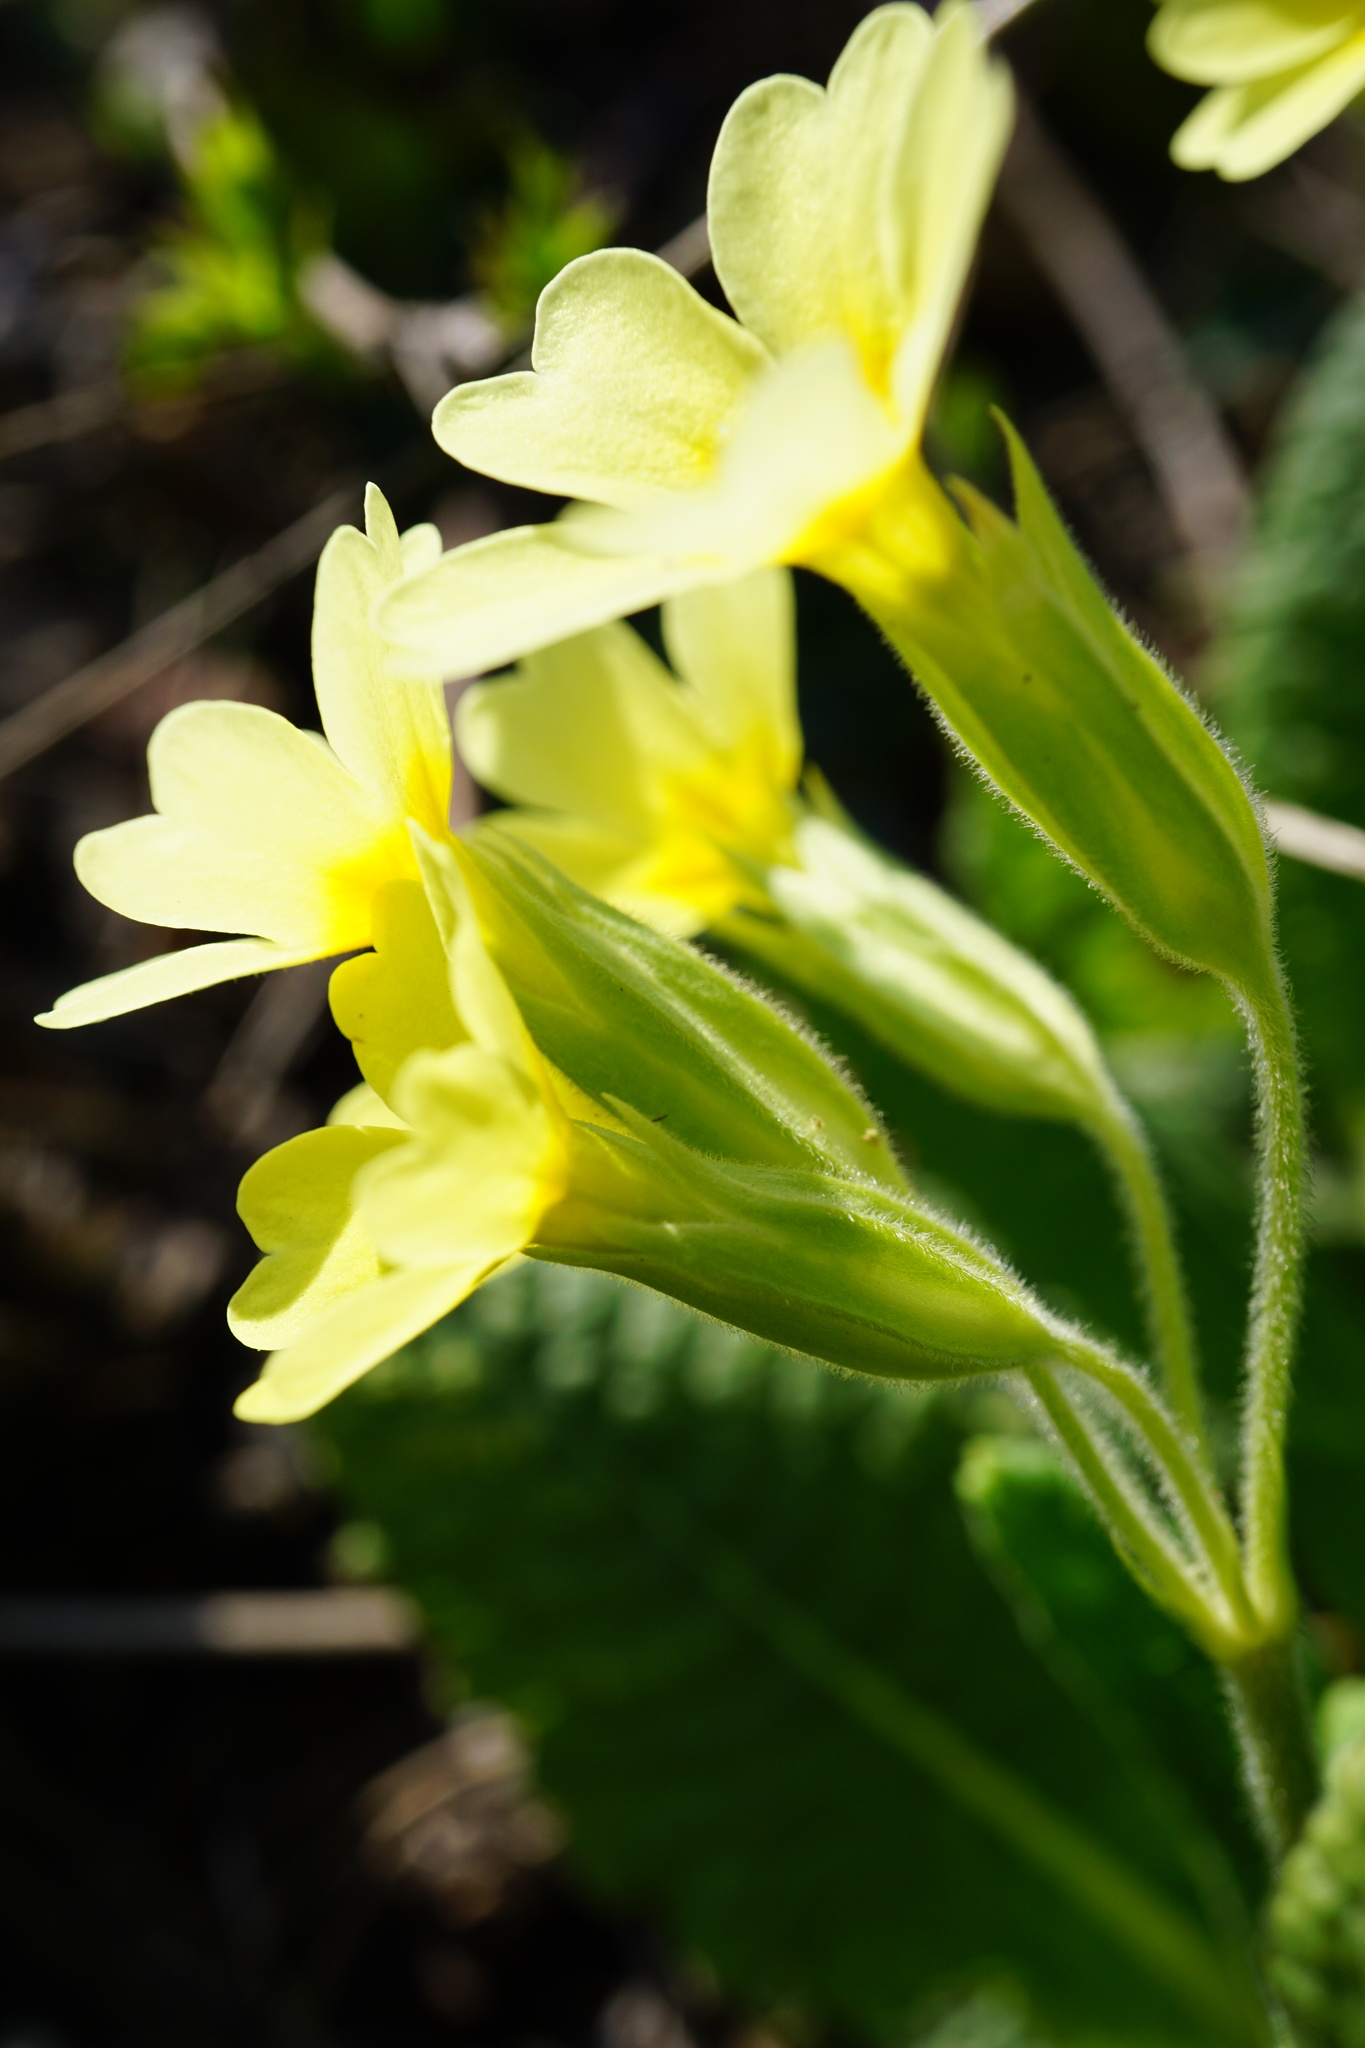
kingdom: Plantae
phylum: Tracheophyta
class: Magnoliopsida
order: Ericales
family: Primulaceae
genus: Primula
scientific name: Primula polyantha
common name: False oxlip
